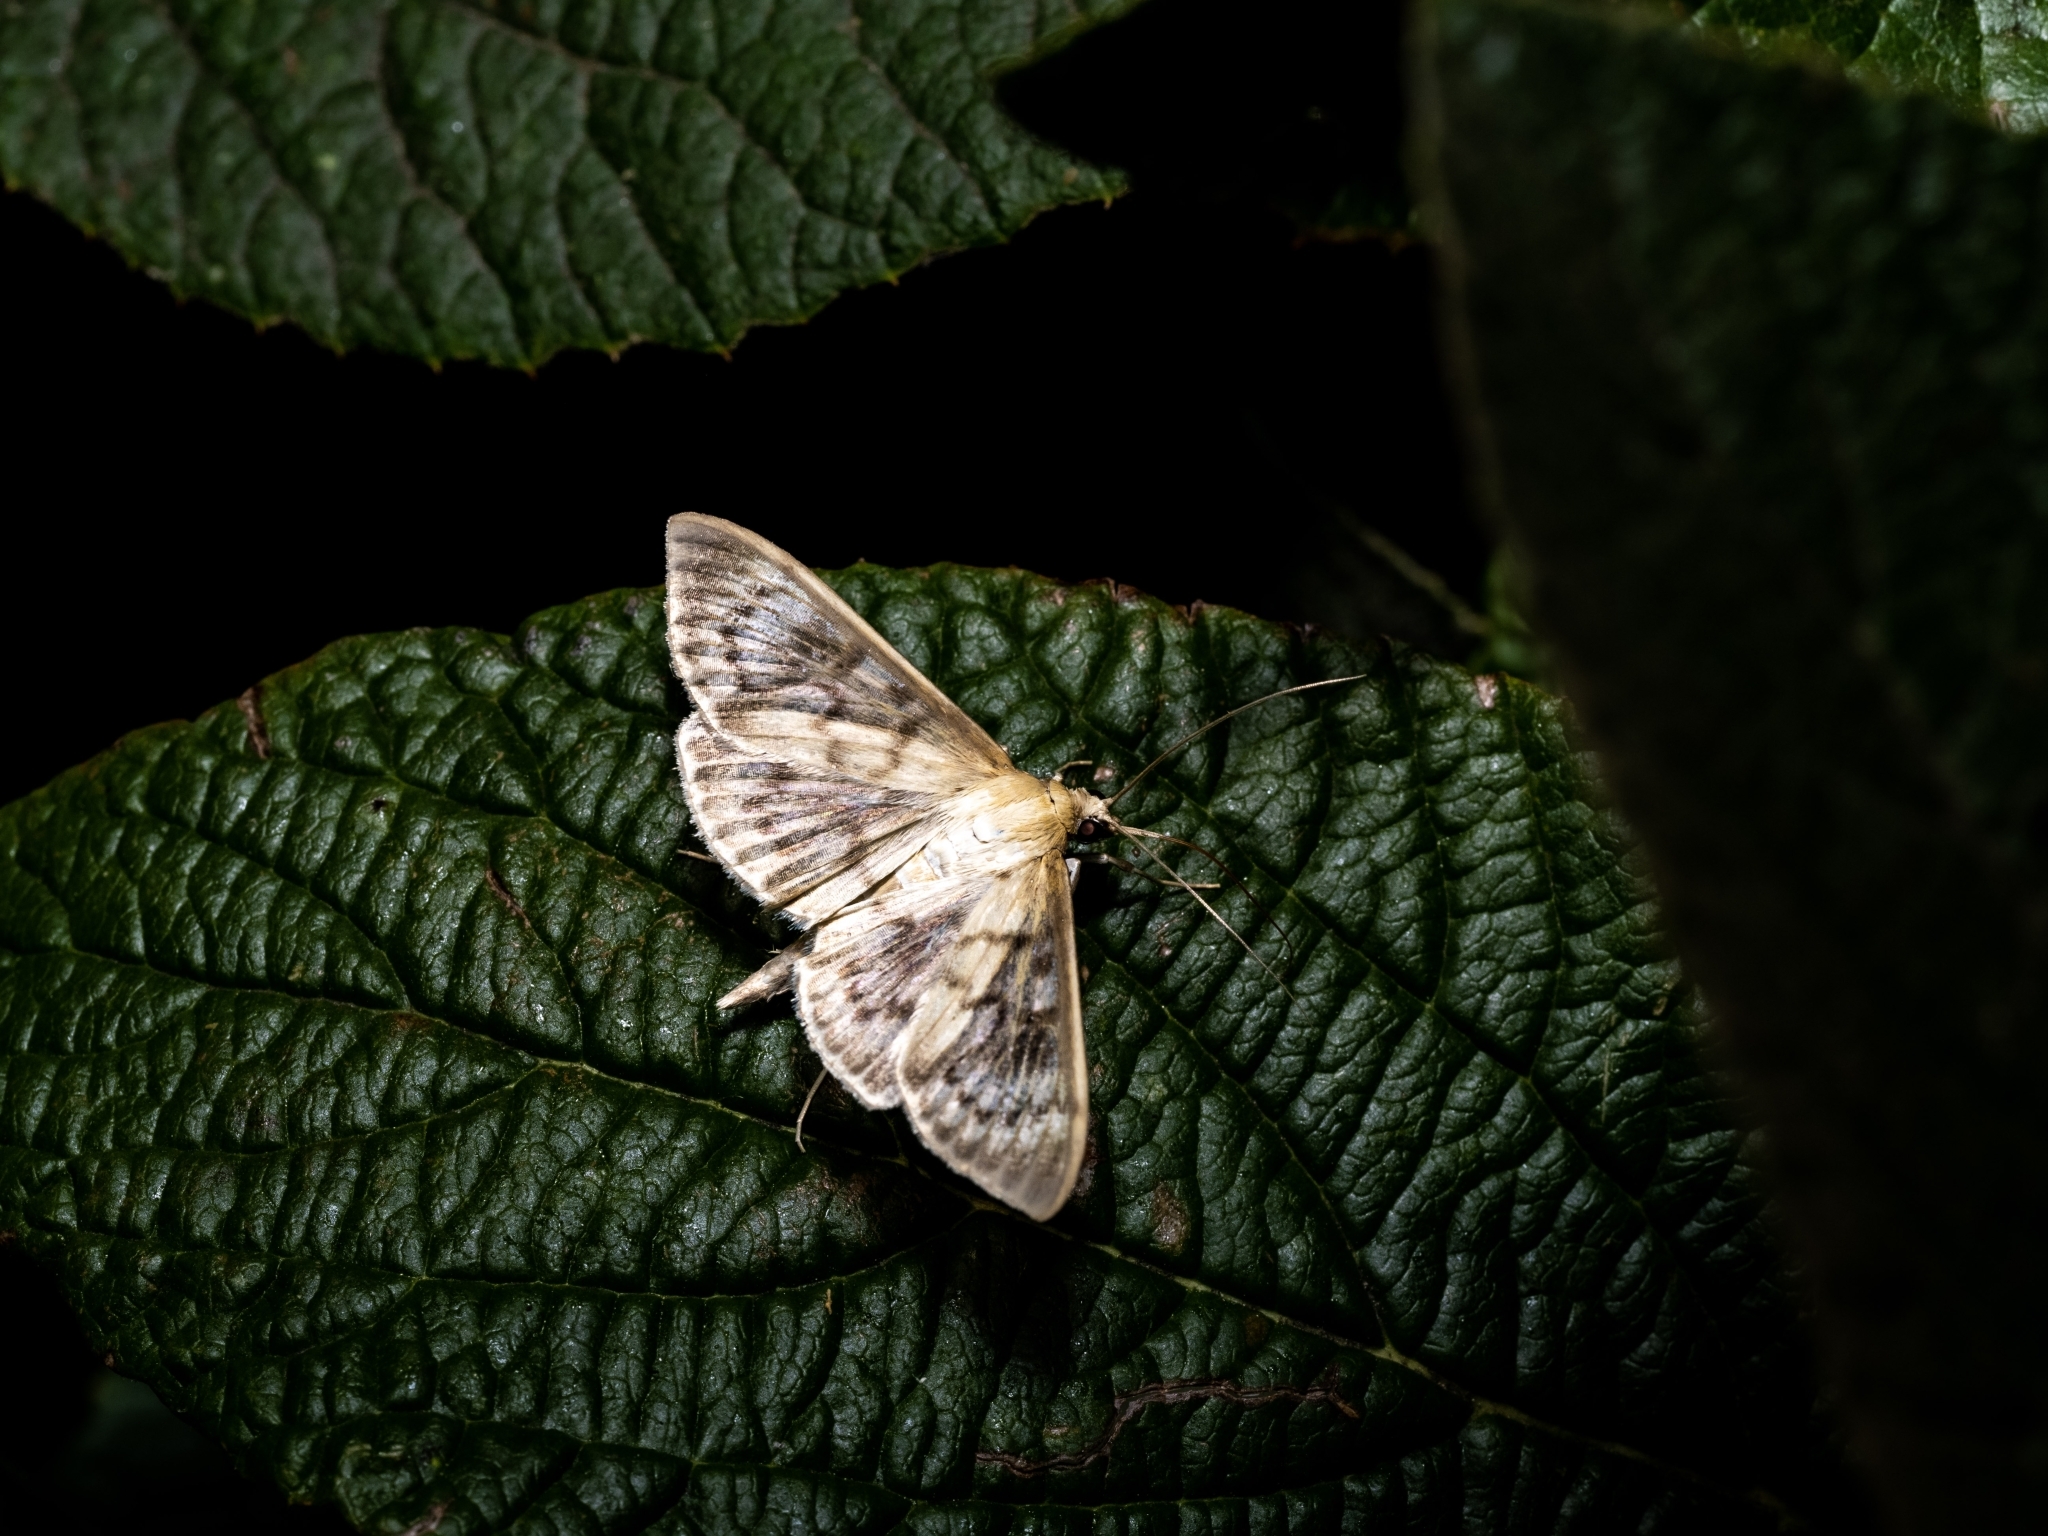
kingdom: Animalia
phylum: Arthropoda
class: Insecta
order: Lepidoptera
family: Crambidae
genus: Patania
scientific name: Patania ruralis
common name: Mother of pearl
